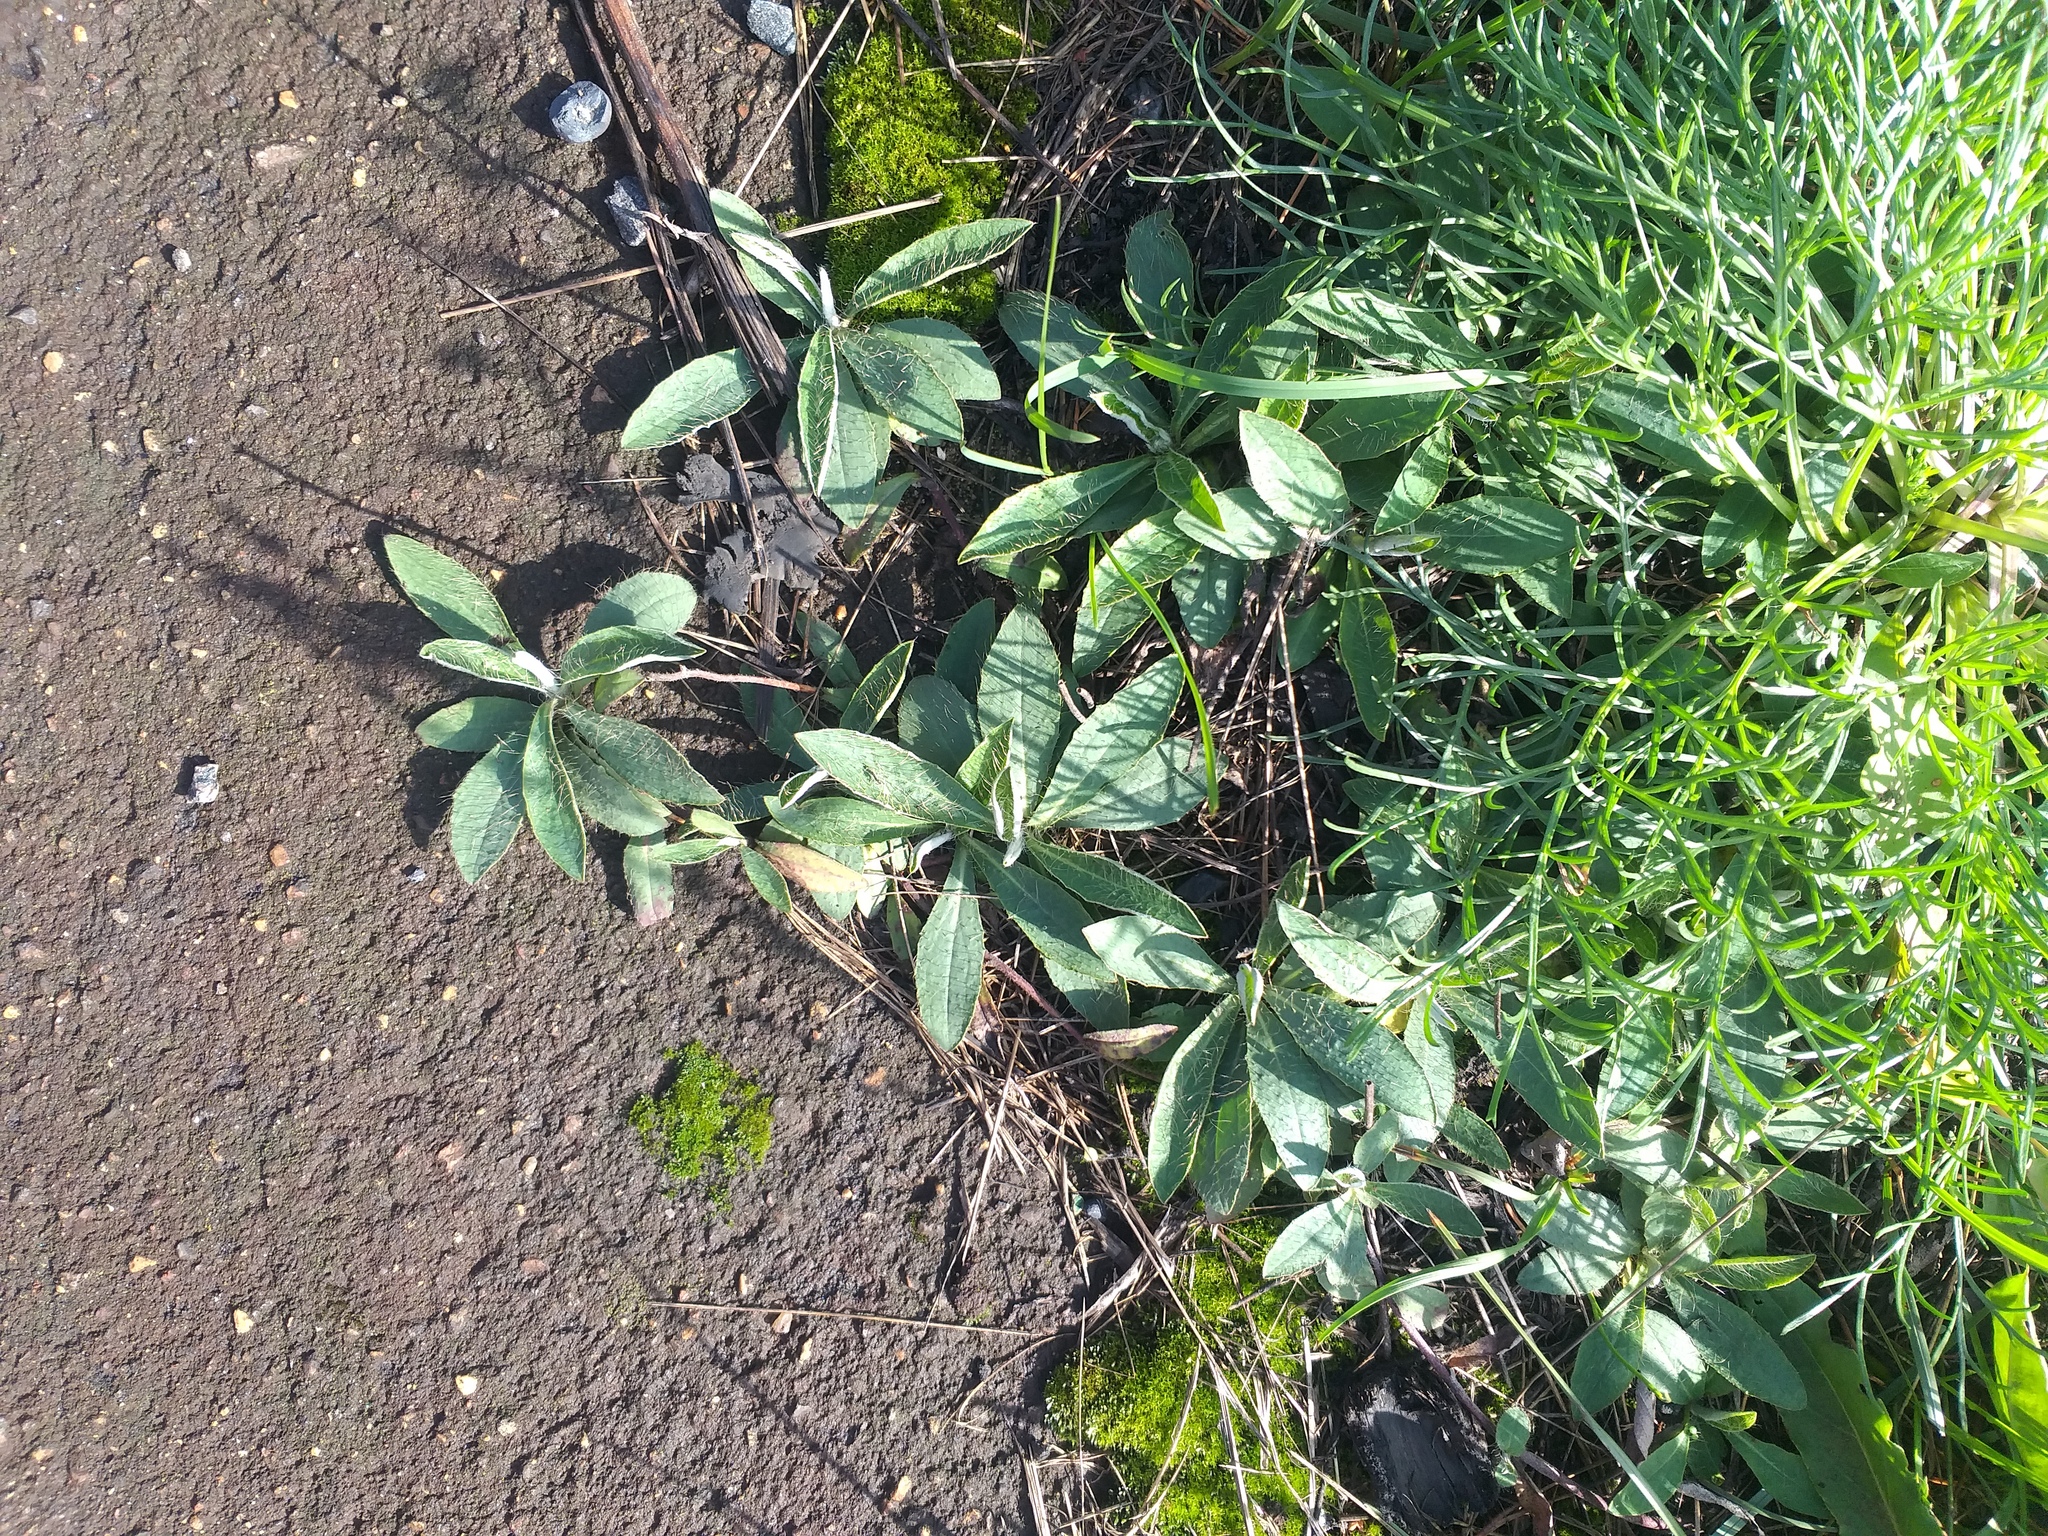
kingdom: Plantae
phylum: Tracheophyta
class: Magnoliopsida
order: Asterales
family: Asteraceae
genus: Pilosella
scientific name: Pilosella officinarum
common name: Mouse-ear hawkweed
